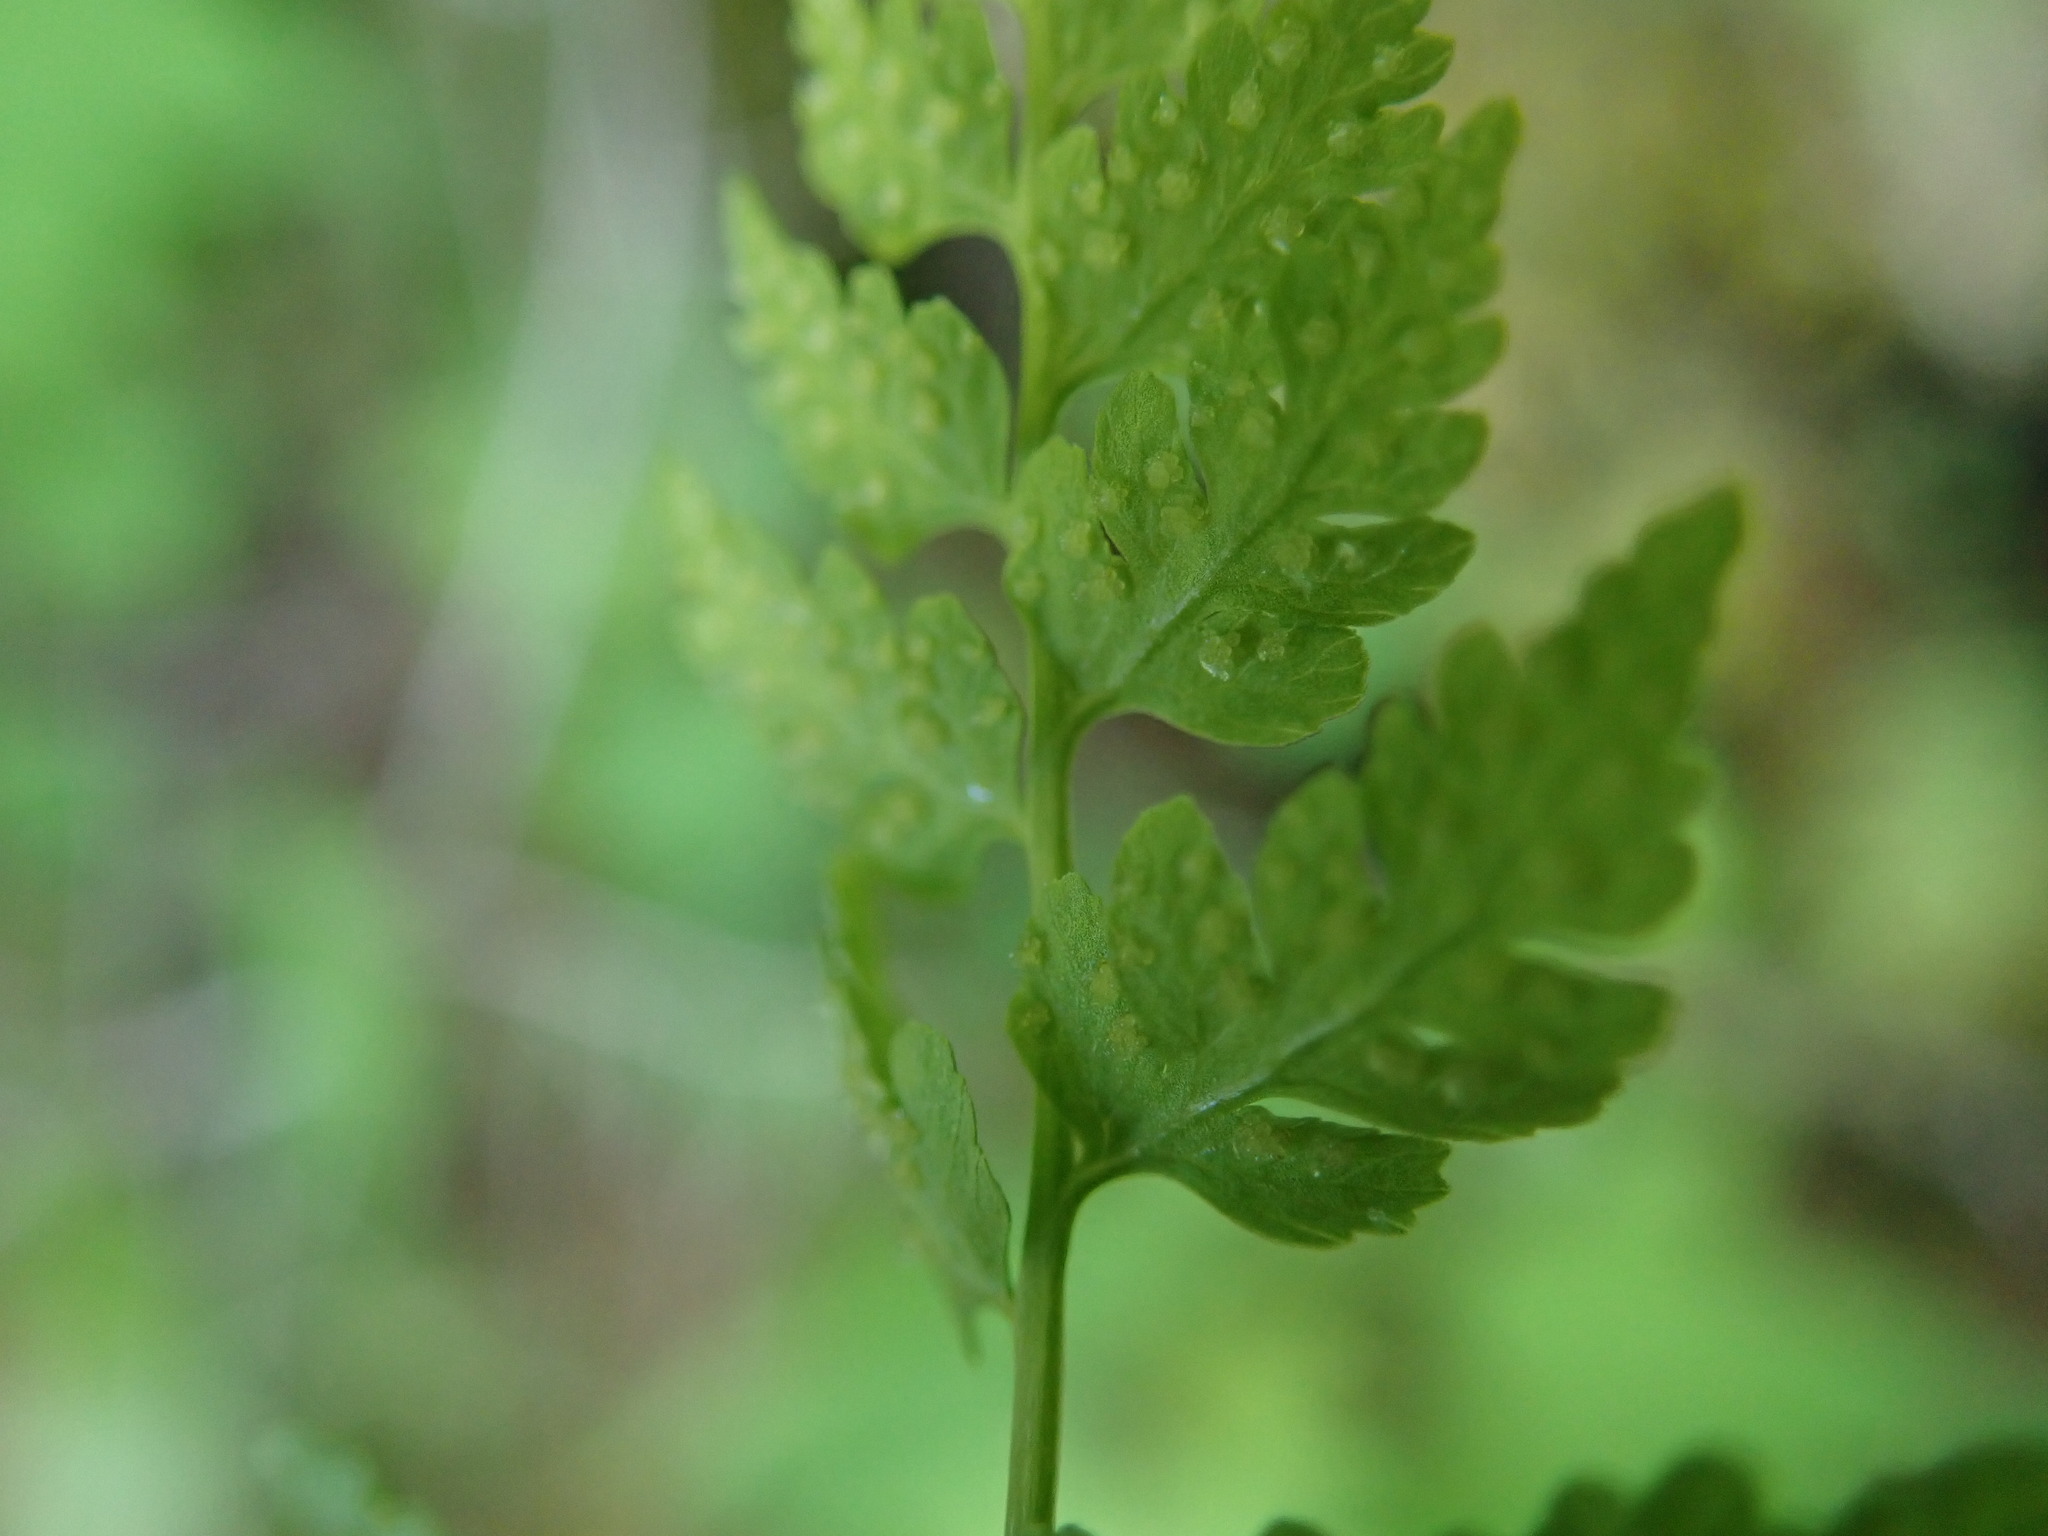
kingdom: Plantae
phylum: Tracheophyta
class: Polypodiopsida
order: Polypodiales
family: Cystopteridaceae
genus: Cystopteris
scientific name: Cystopteris fragilis
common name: Brittle bladder fern
